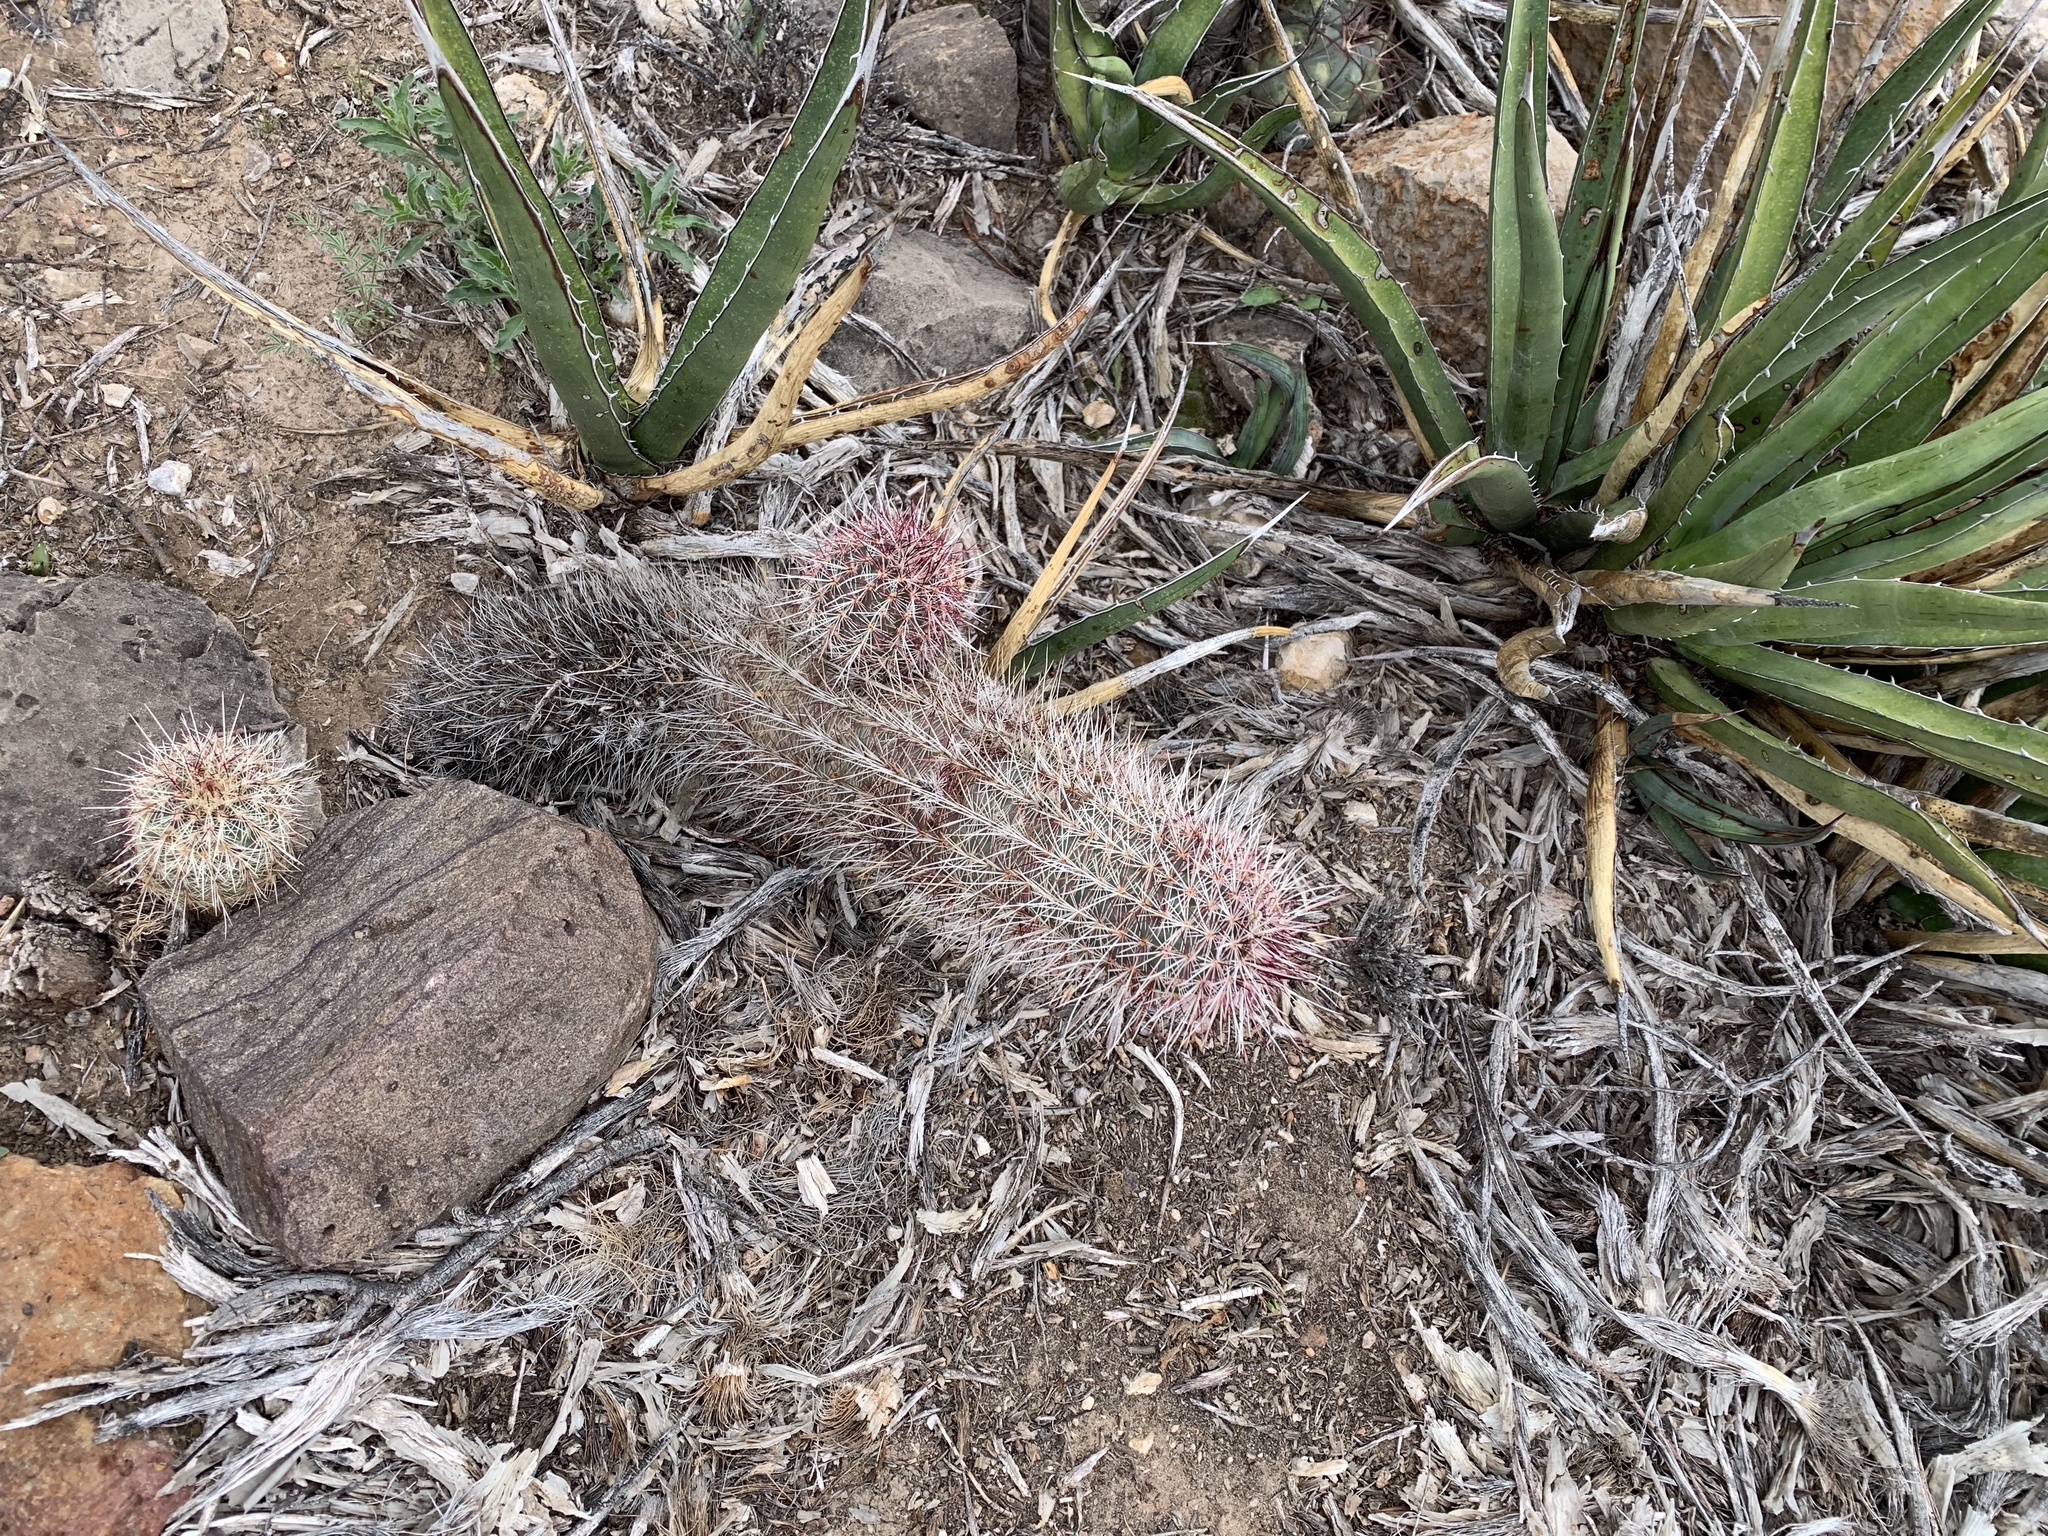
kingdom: Plantae
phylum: Tracheophyta
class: Magnoliopsida
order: Caryophyllales
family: Cactaceae
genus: Echinocereus
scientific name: Echinocereus viridiflorus
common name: Nylon hedgehog cactus
